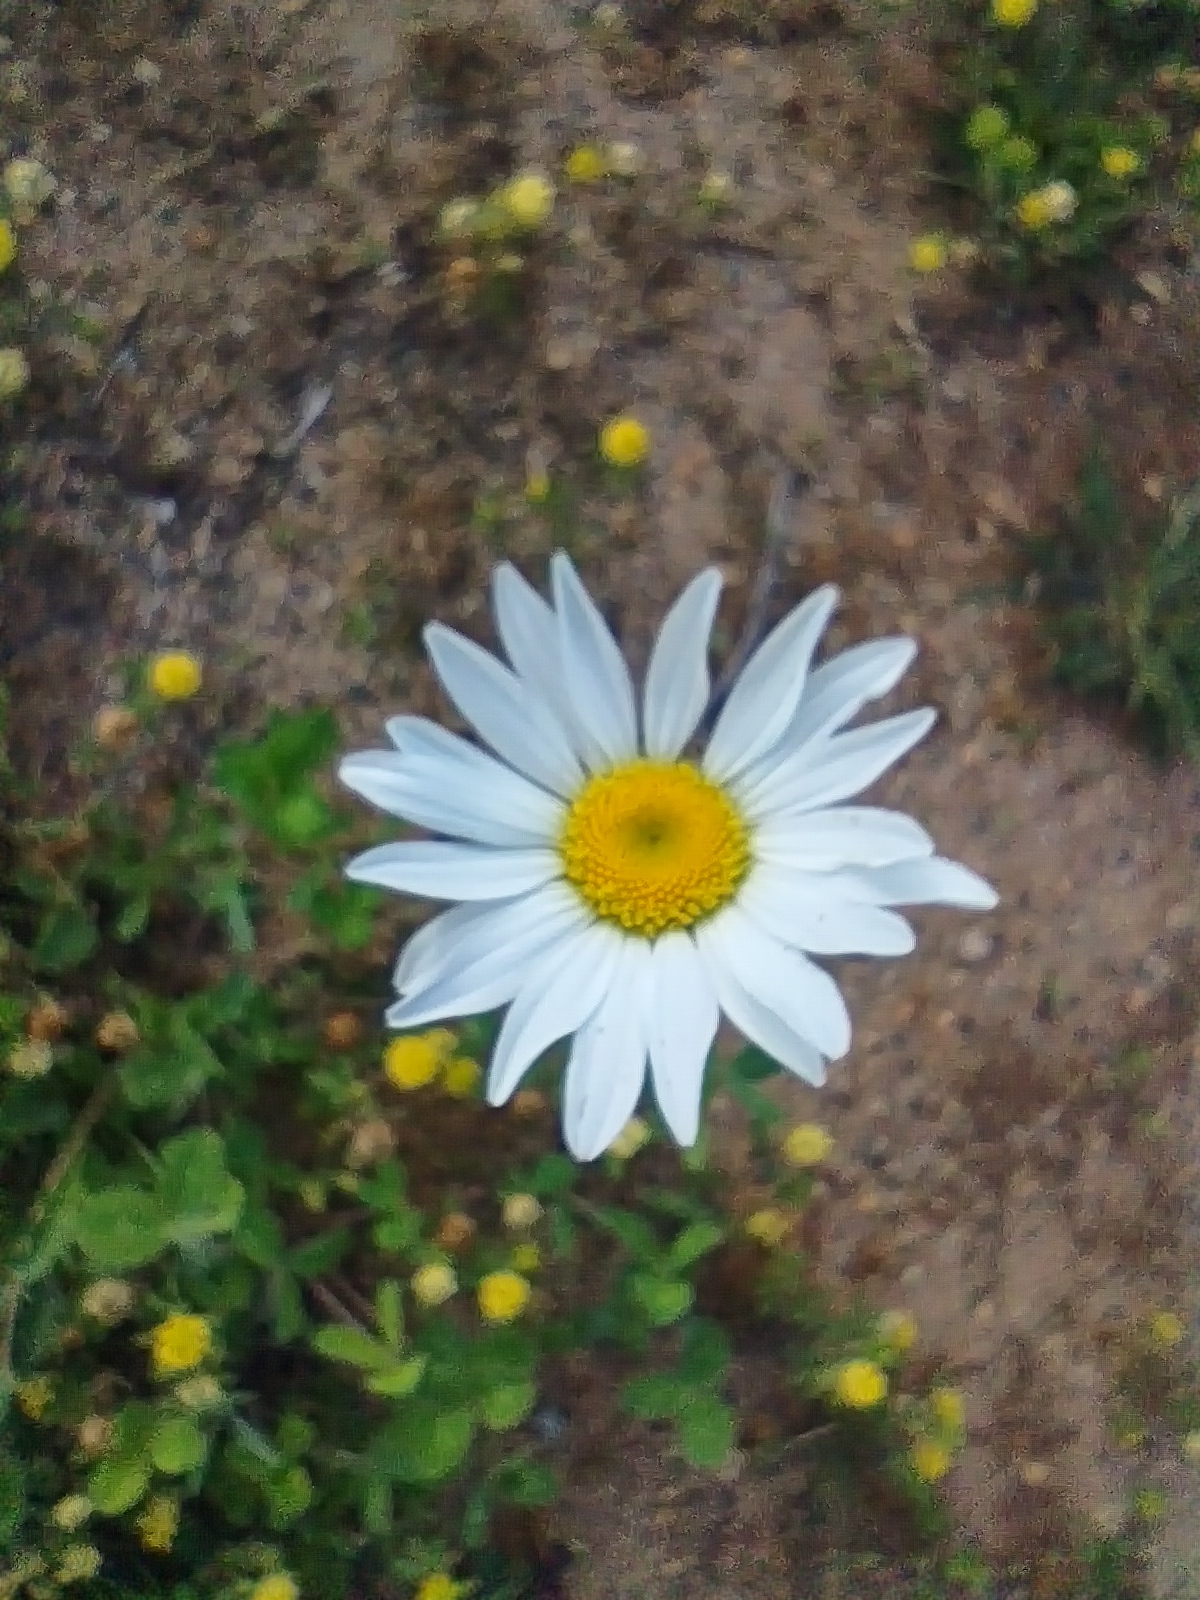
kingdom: Plantae
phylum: Tracheophyta
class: Magnoliopsida
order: Asterales
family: Asteraceae
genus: Leucanthemum
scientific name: Leucanthemum vulgare
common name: Oxeye daisy
